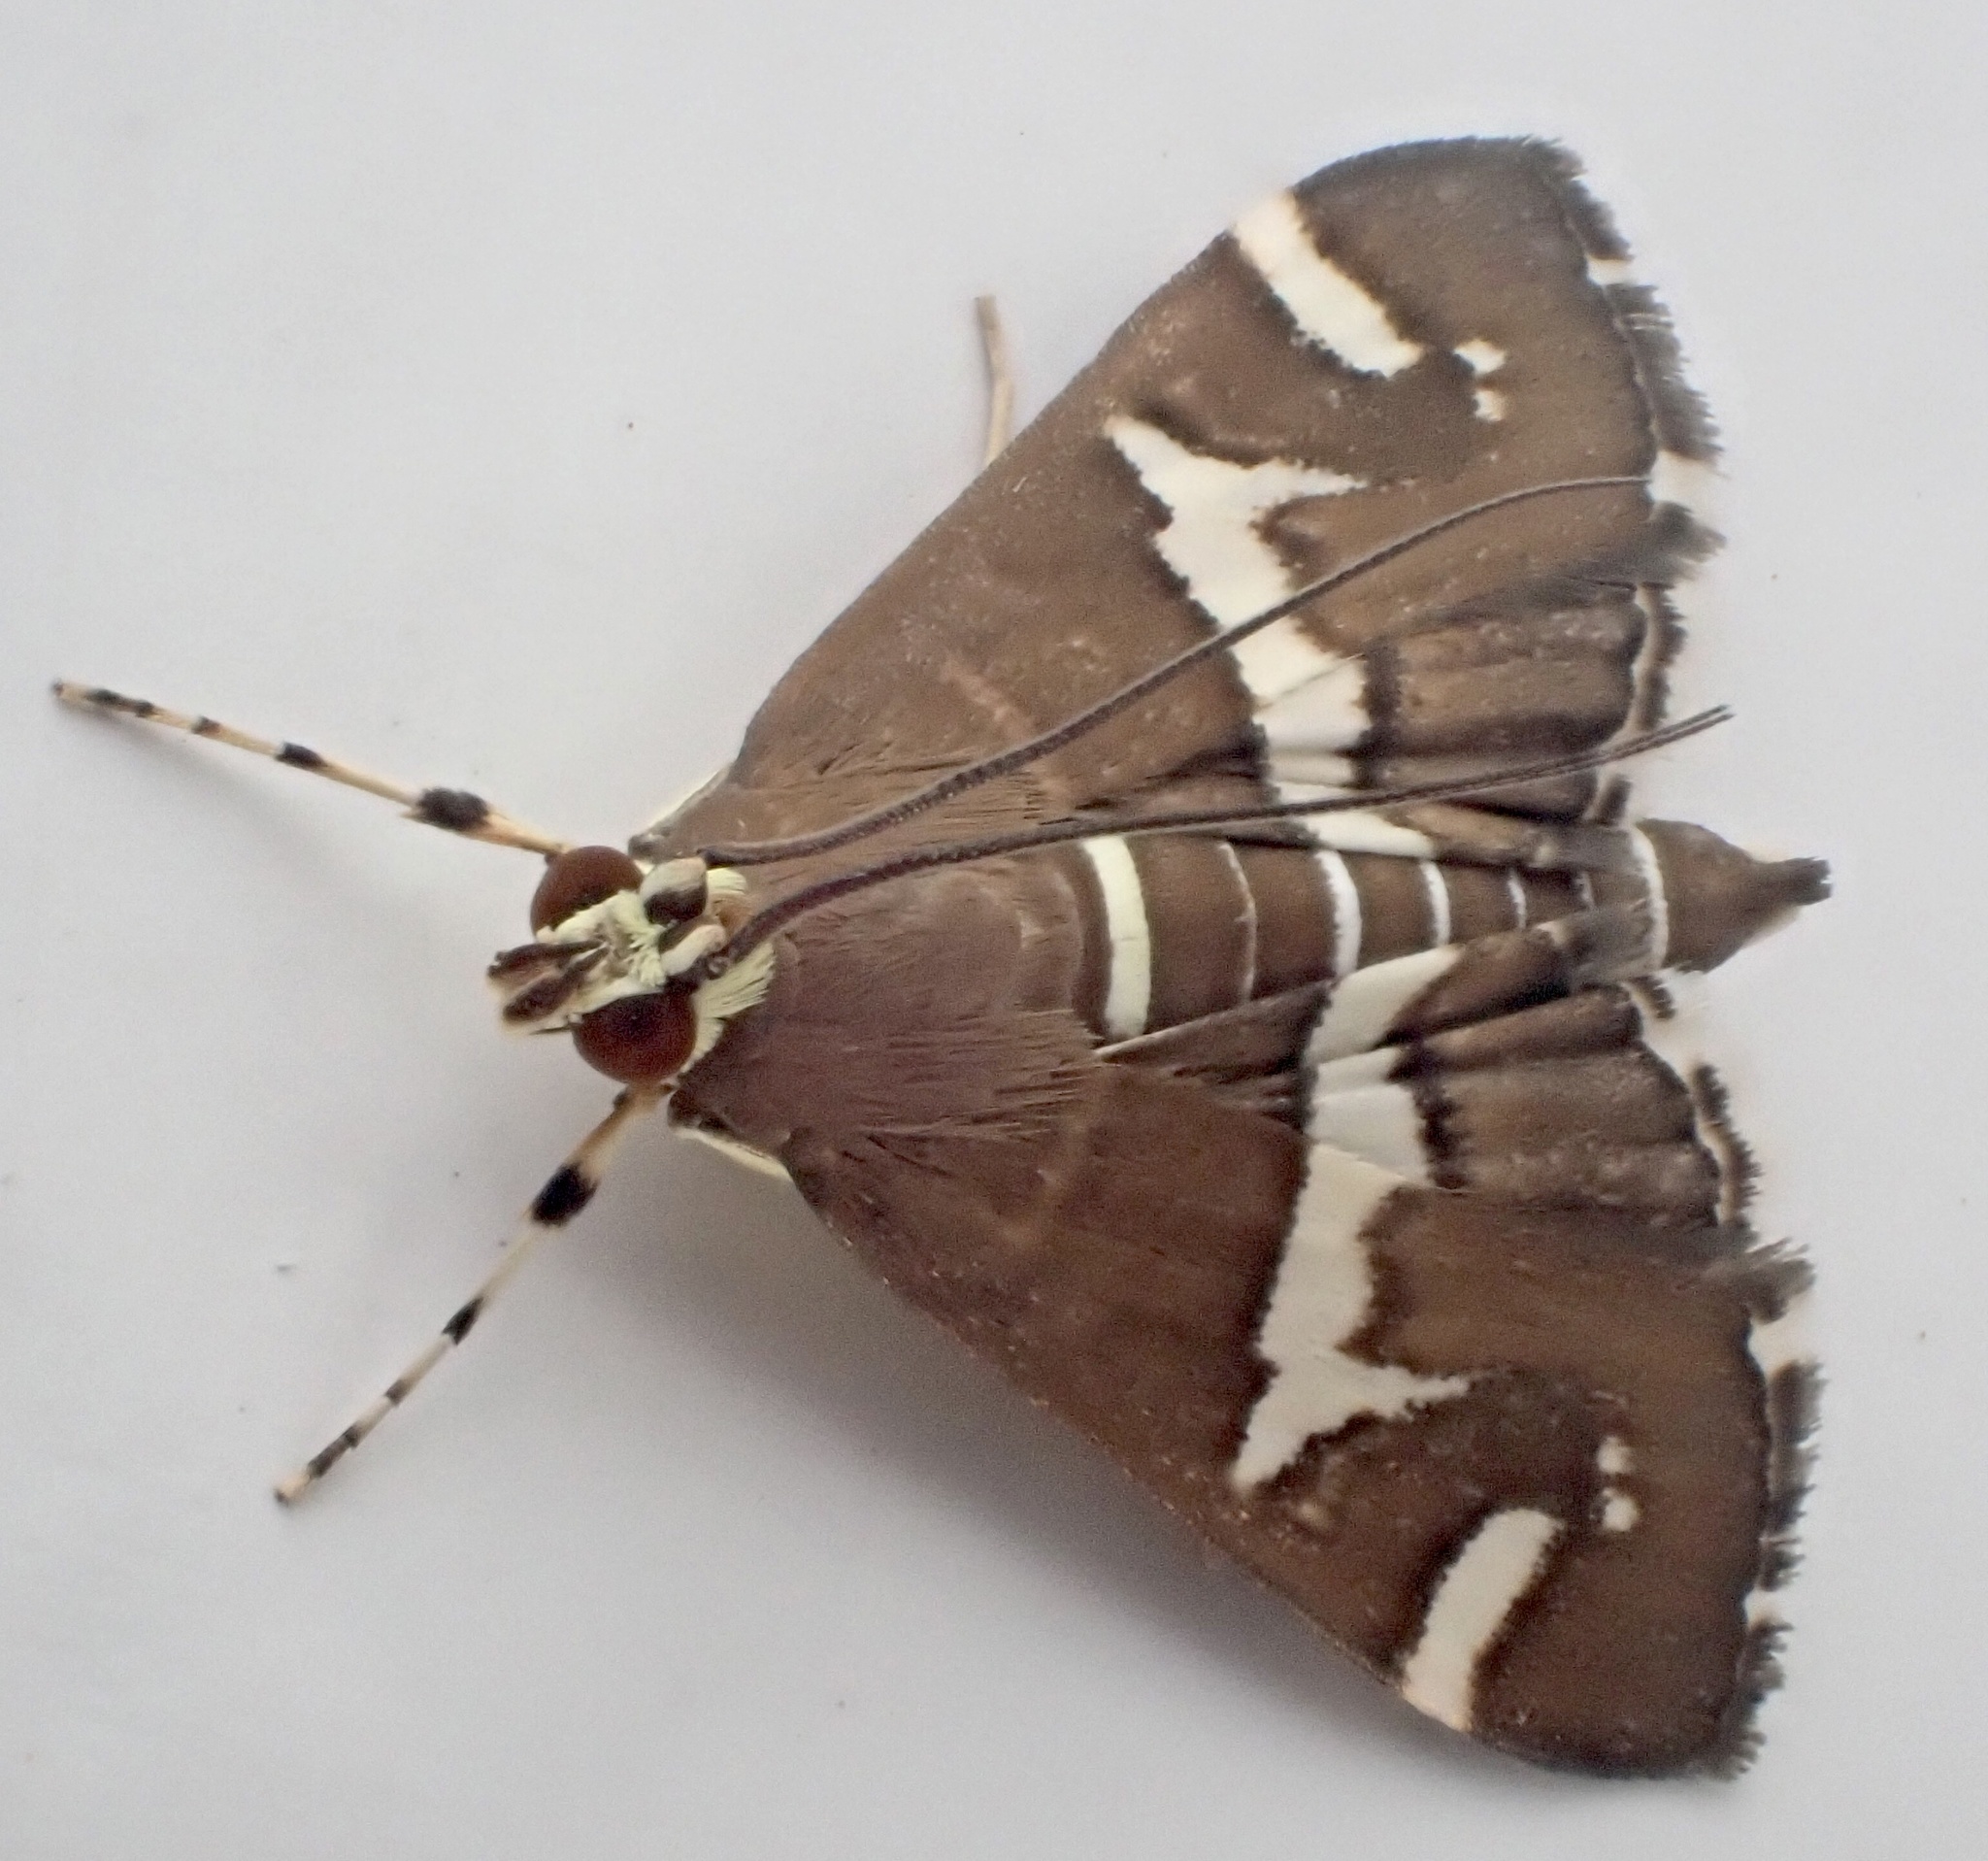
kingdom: Animalia
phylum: Arthropoda
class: Insecta
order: Lepidoptera
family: Crambidae
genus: Spoladea
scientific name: Spoladea recurvalis
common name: Beet webworm moth
